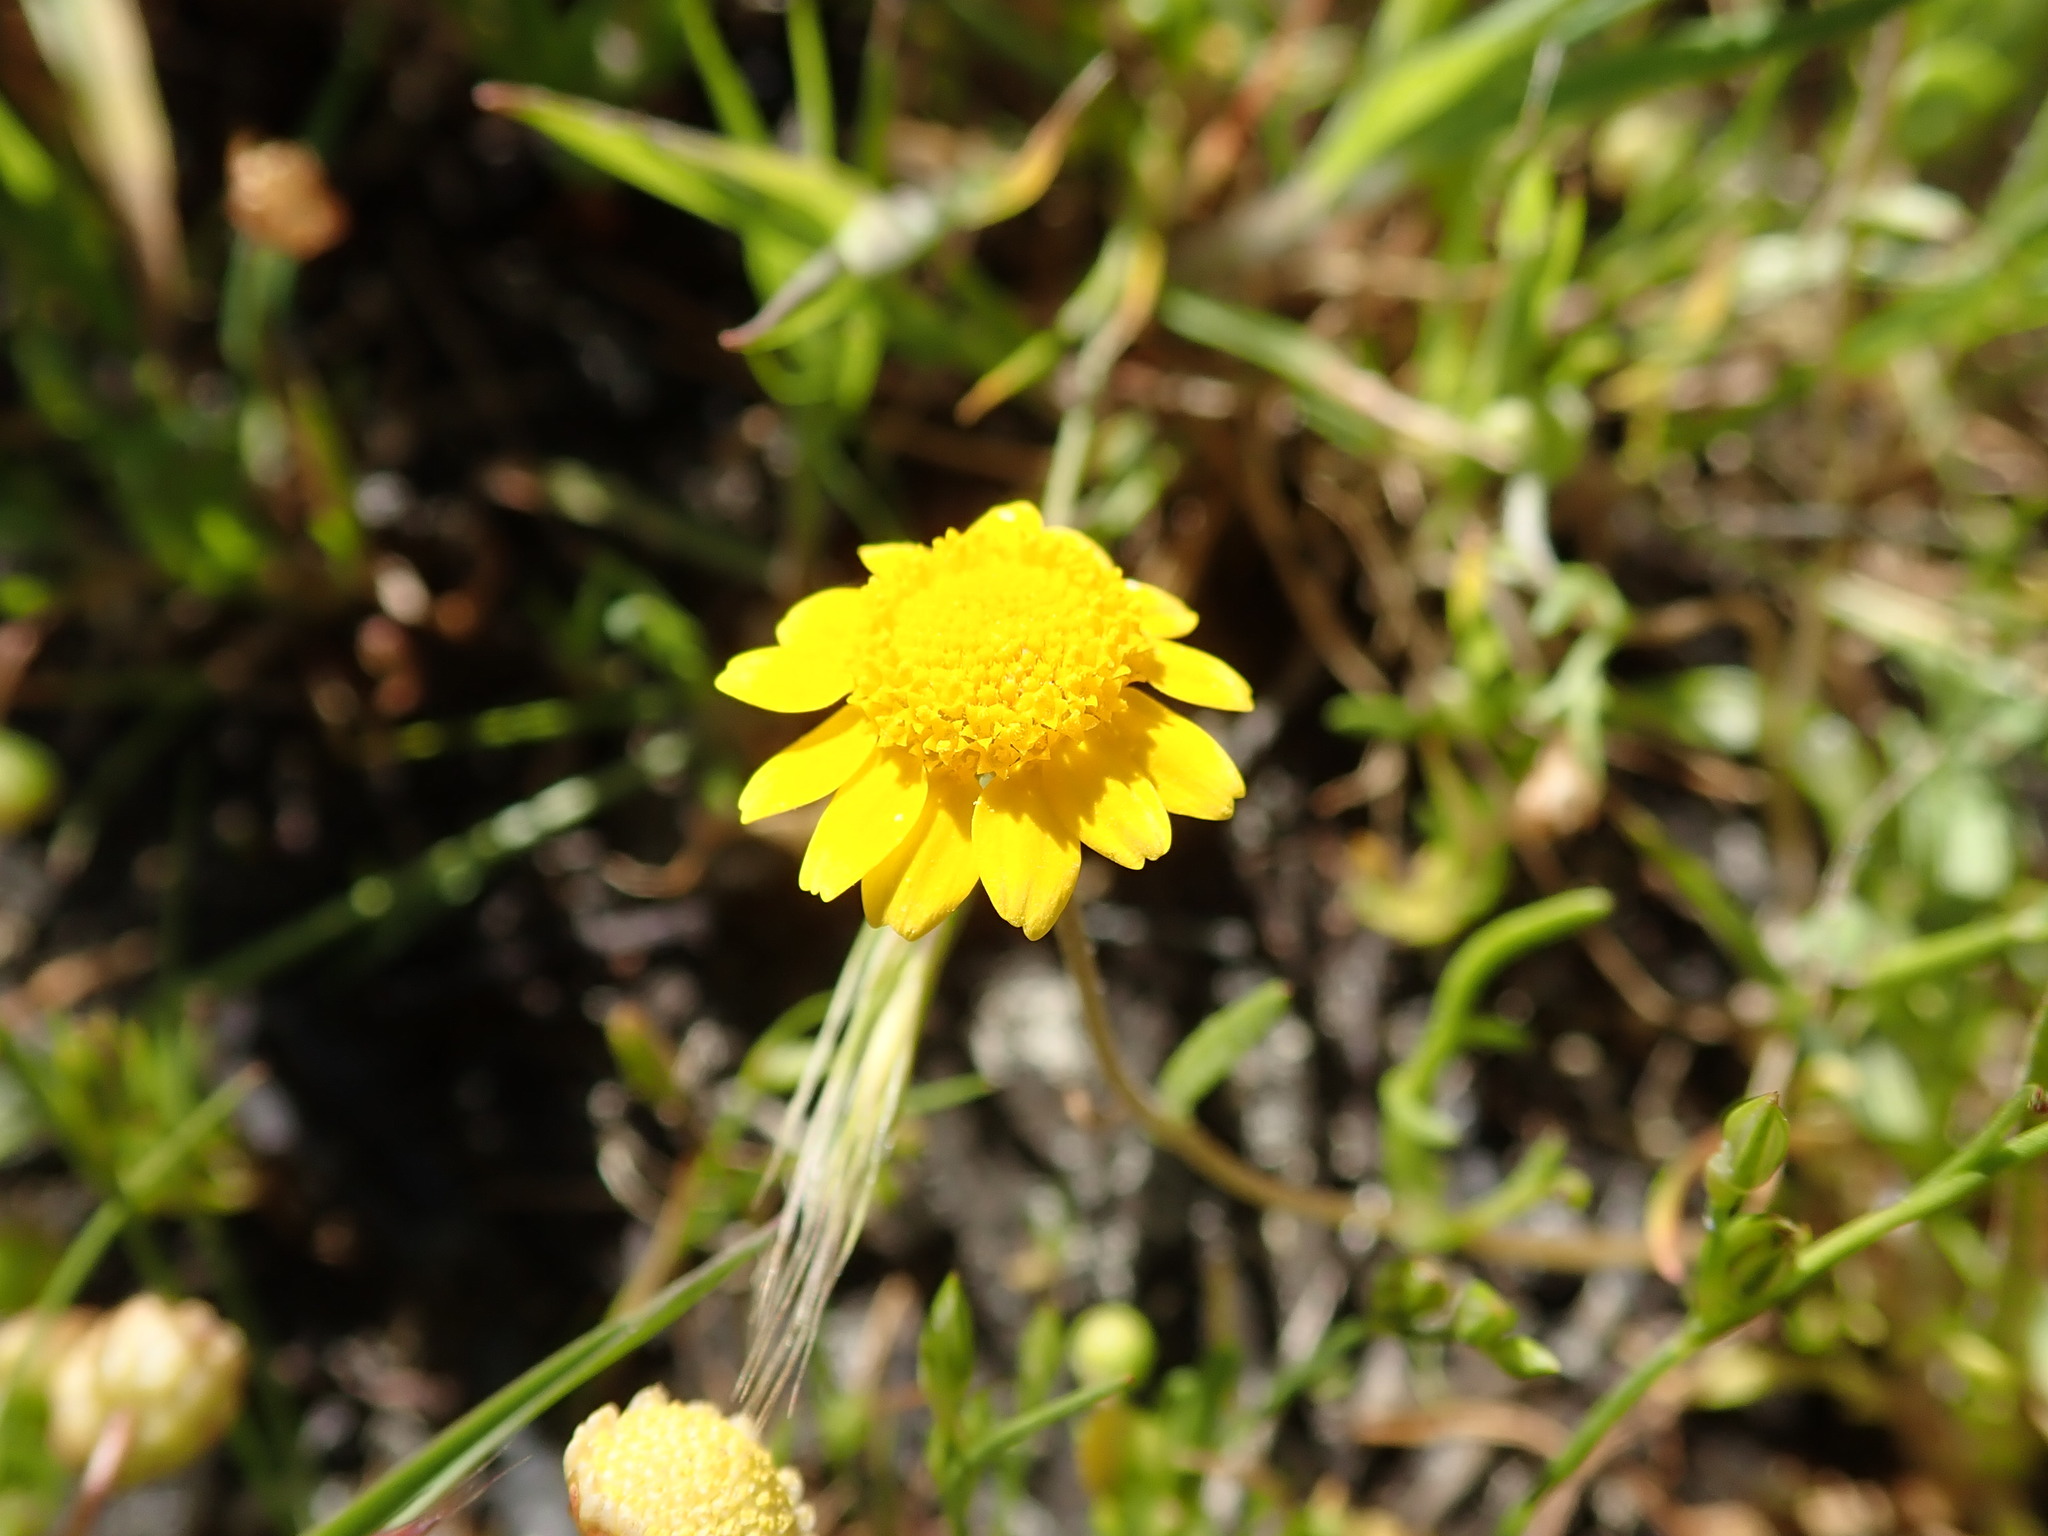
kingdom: Plantae
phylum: Tracheophyta
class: Magnoliopsida
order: Asterales
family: Asteraceae
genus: Lasthenia
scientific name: Lasthenia conjugens
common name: Contra costa goldfields
